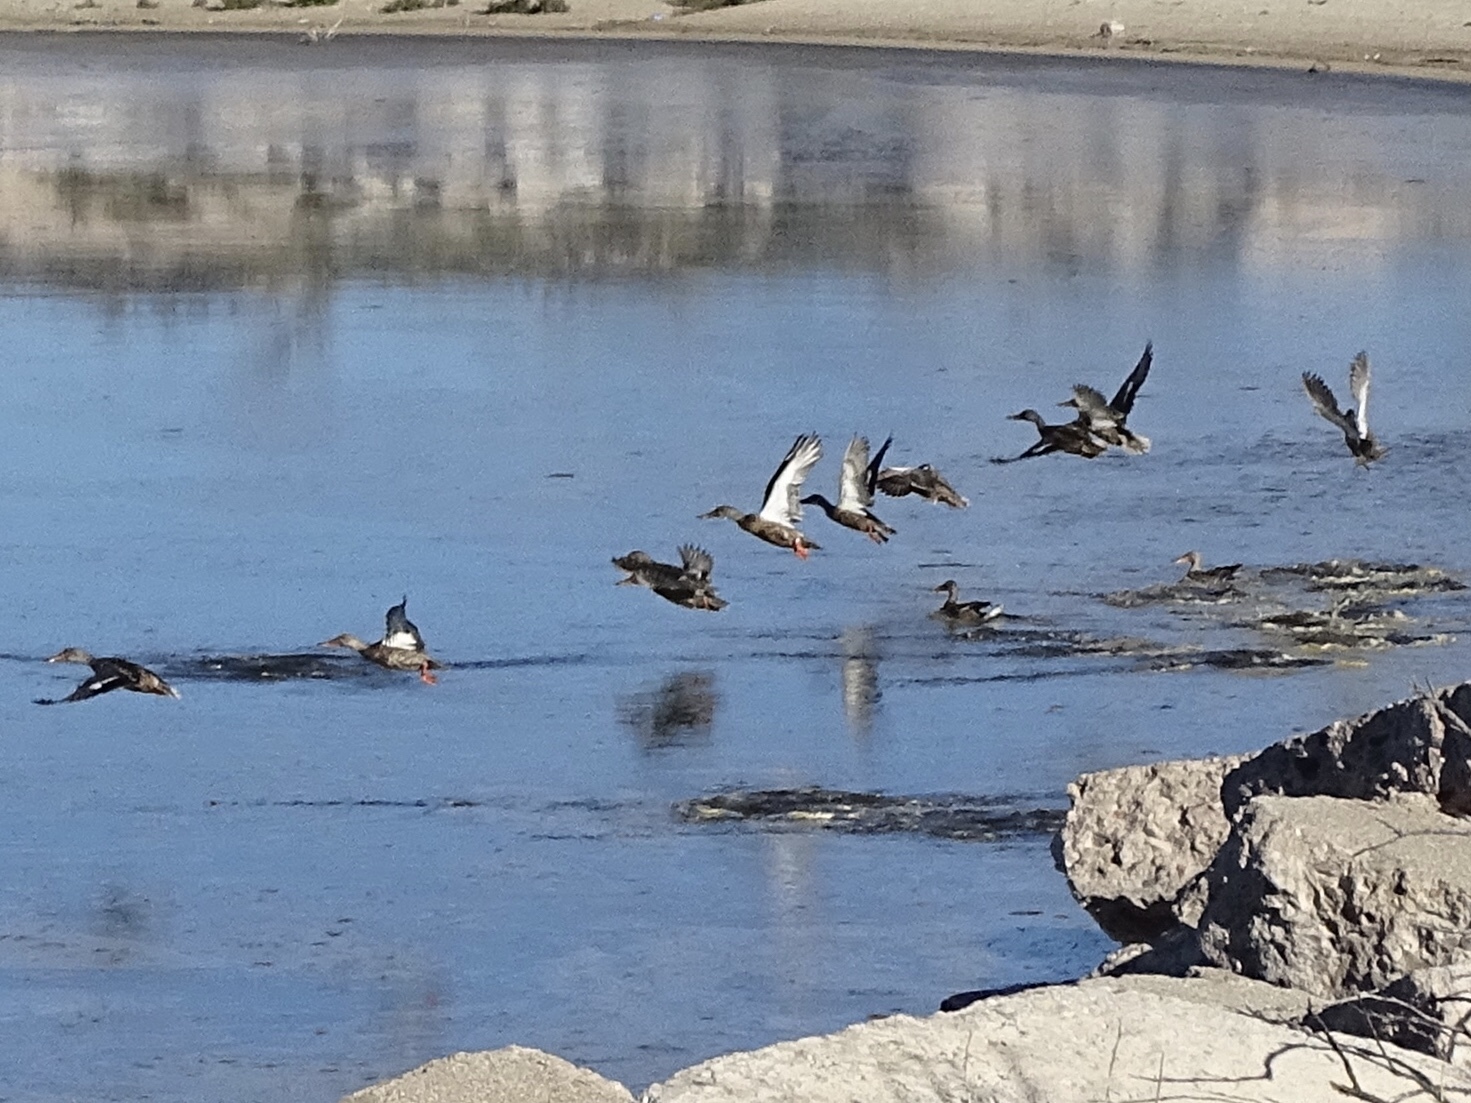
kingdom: Animalia
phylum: Chordata
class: Aves
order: Anseriformes
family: Anatidae
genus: Spatula
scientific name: Spatula clypeata
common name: Northern shoveler
